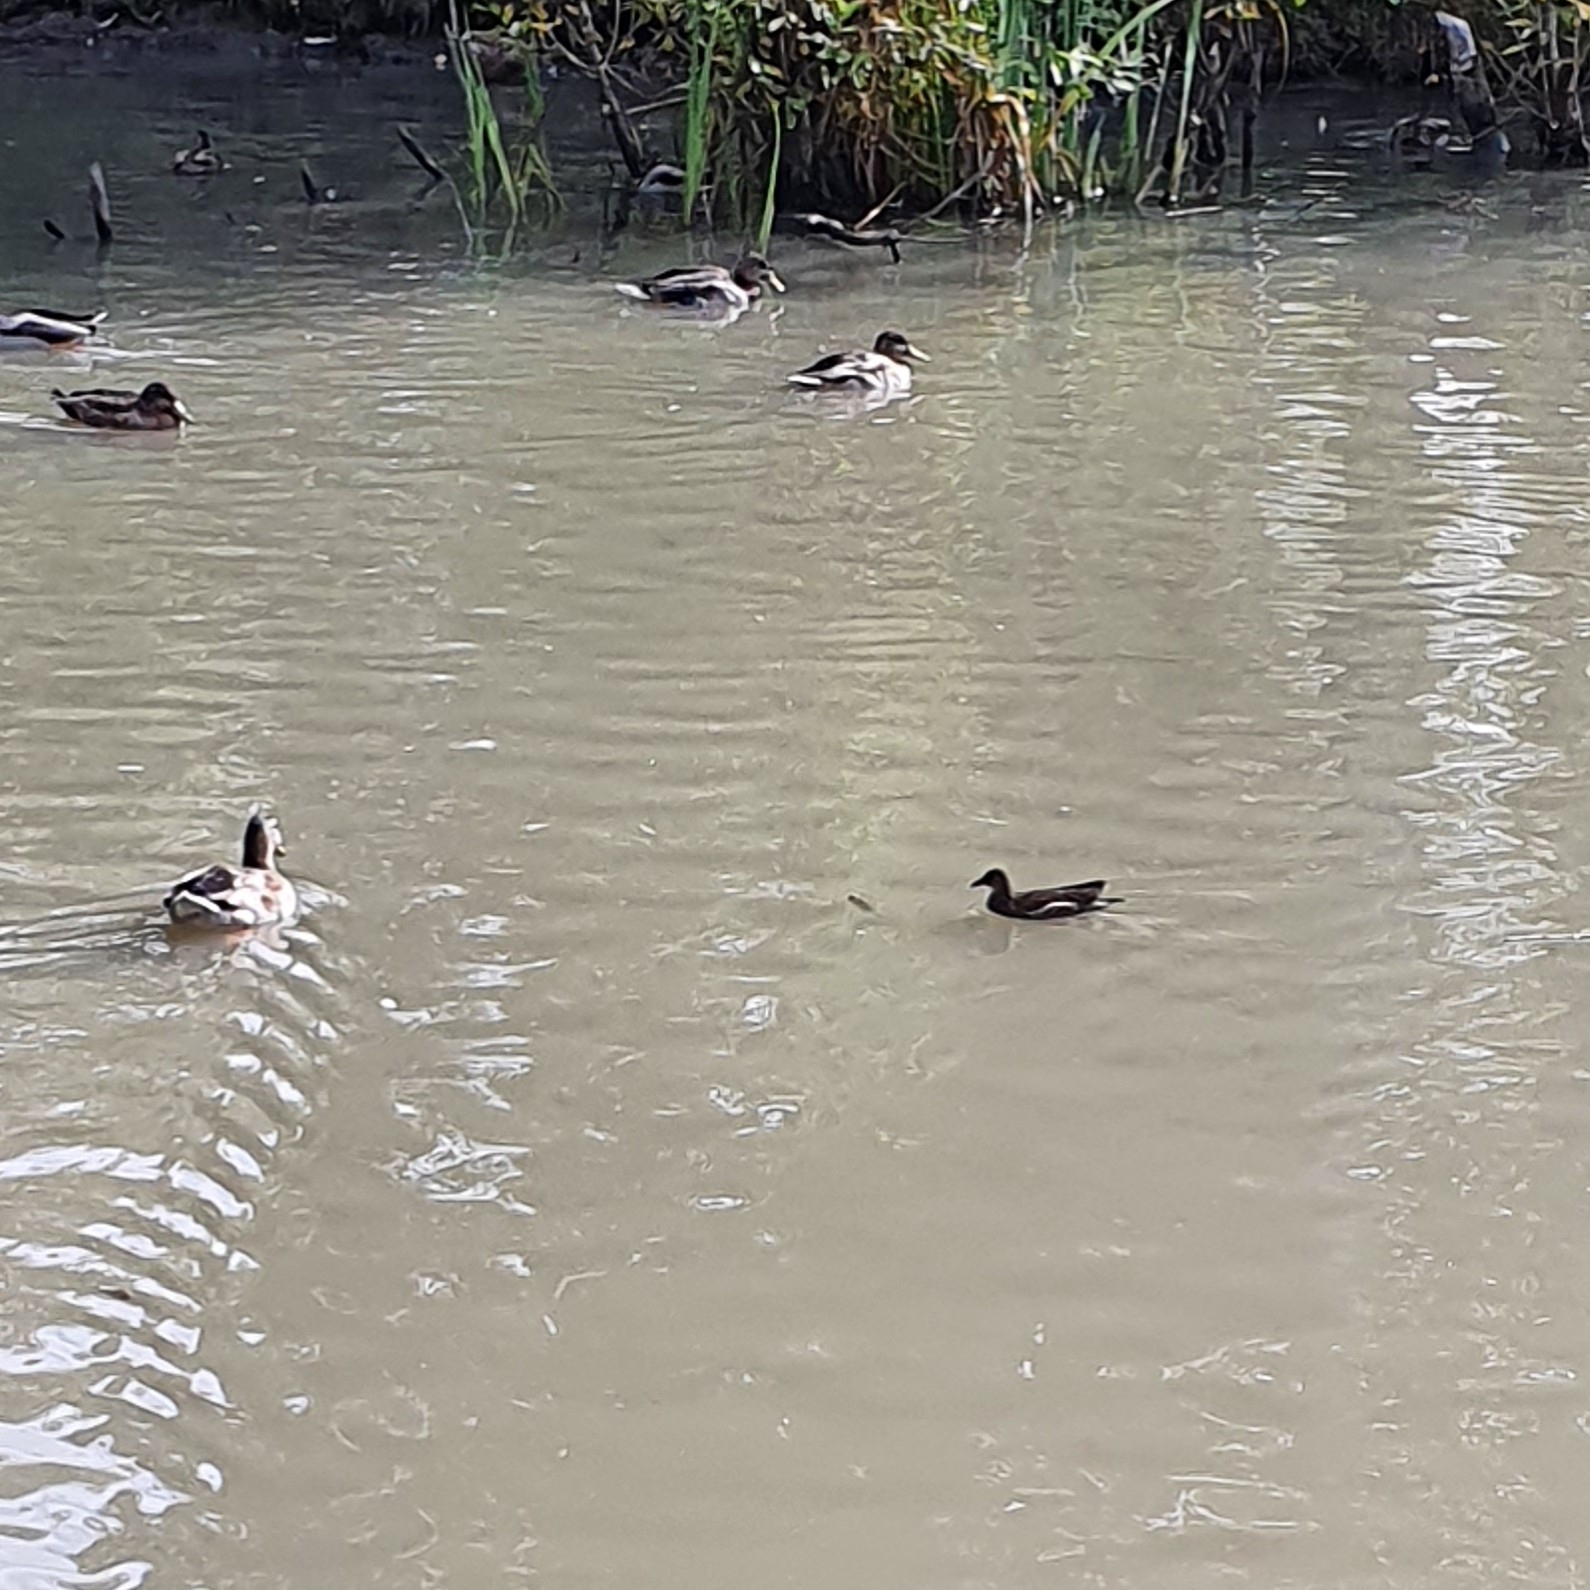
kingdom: Animalia
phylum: Chordata
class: Aves
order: Gruiformes
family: Rallidae
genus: Gallinula
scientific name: Gallinula chloropus
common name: Common moorhen
